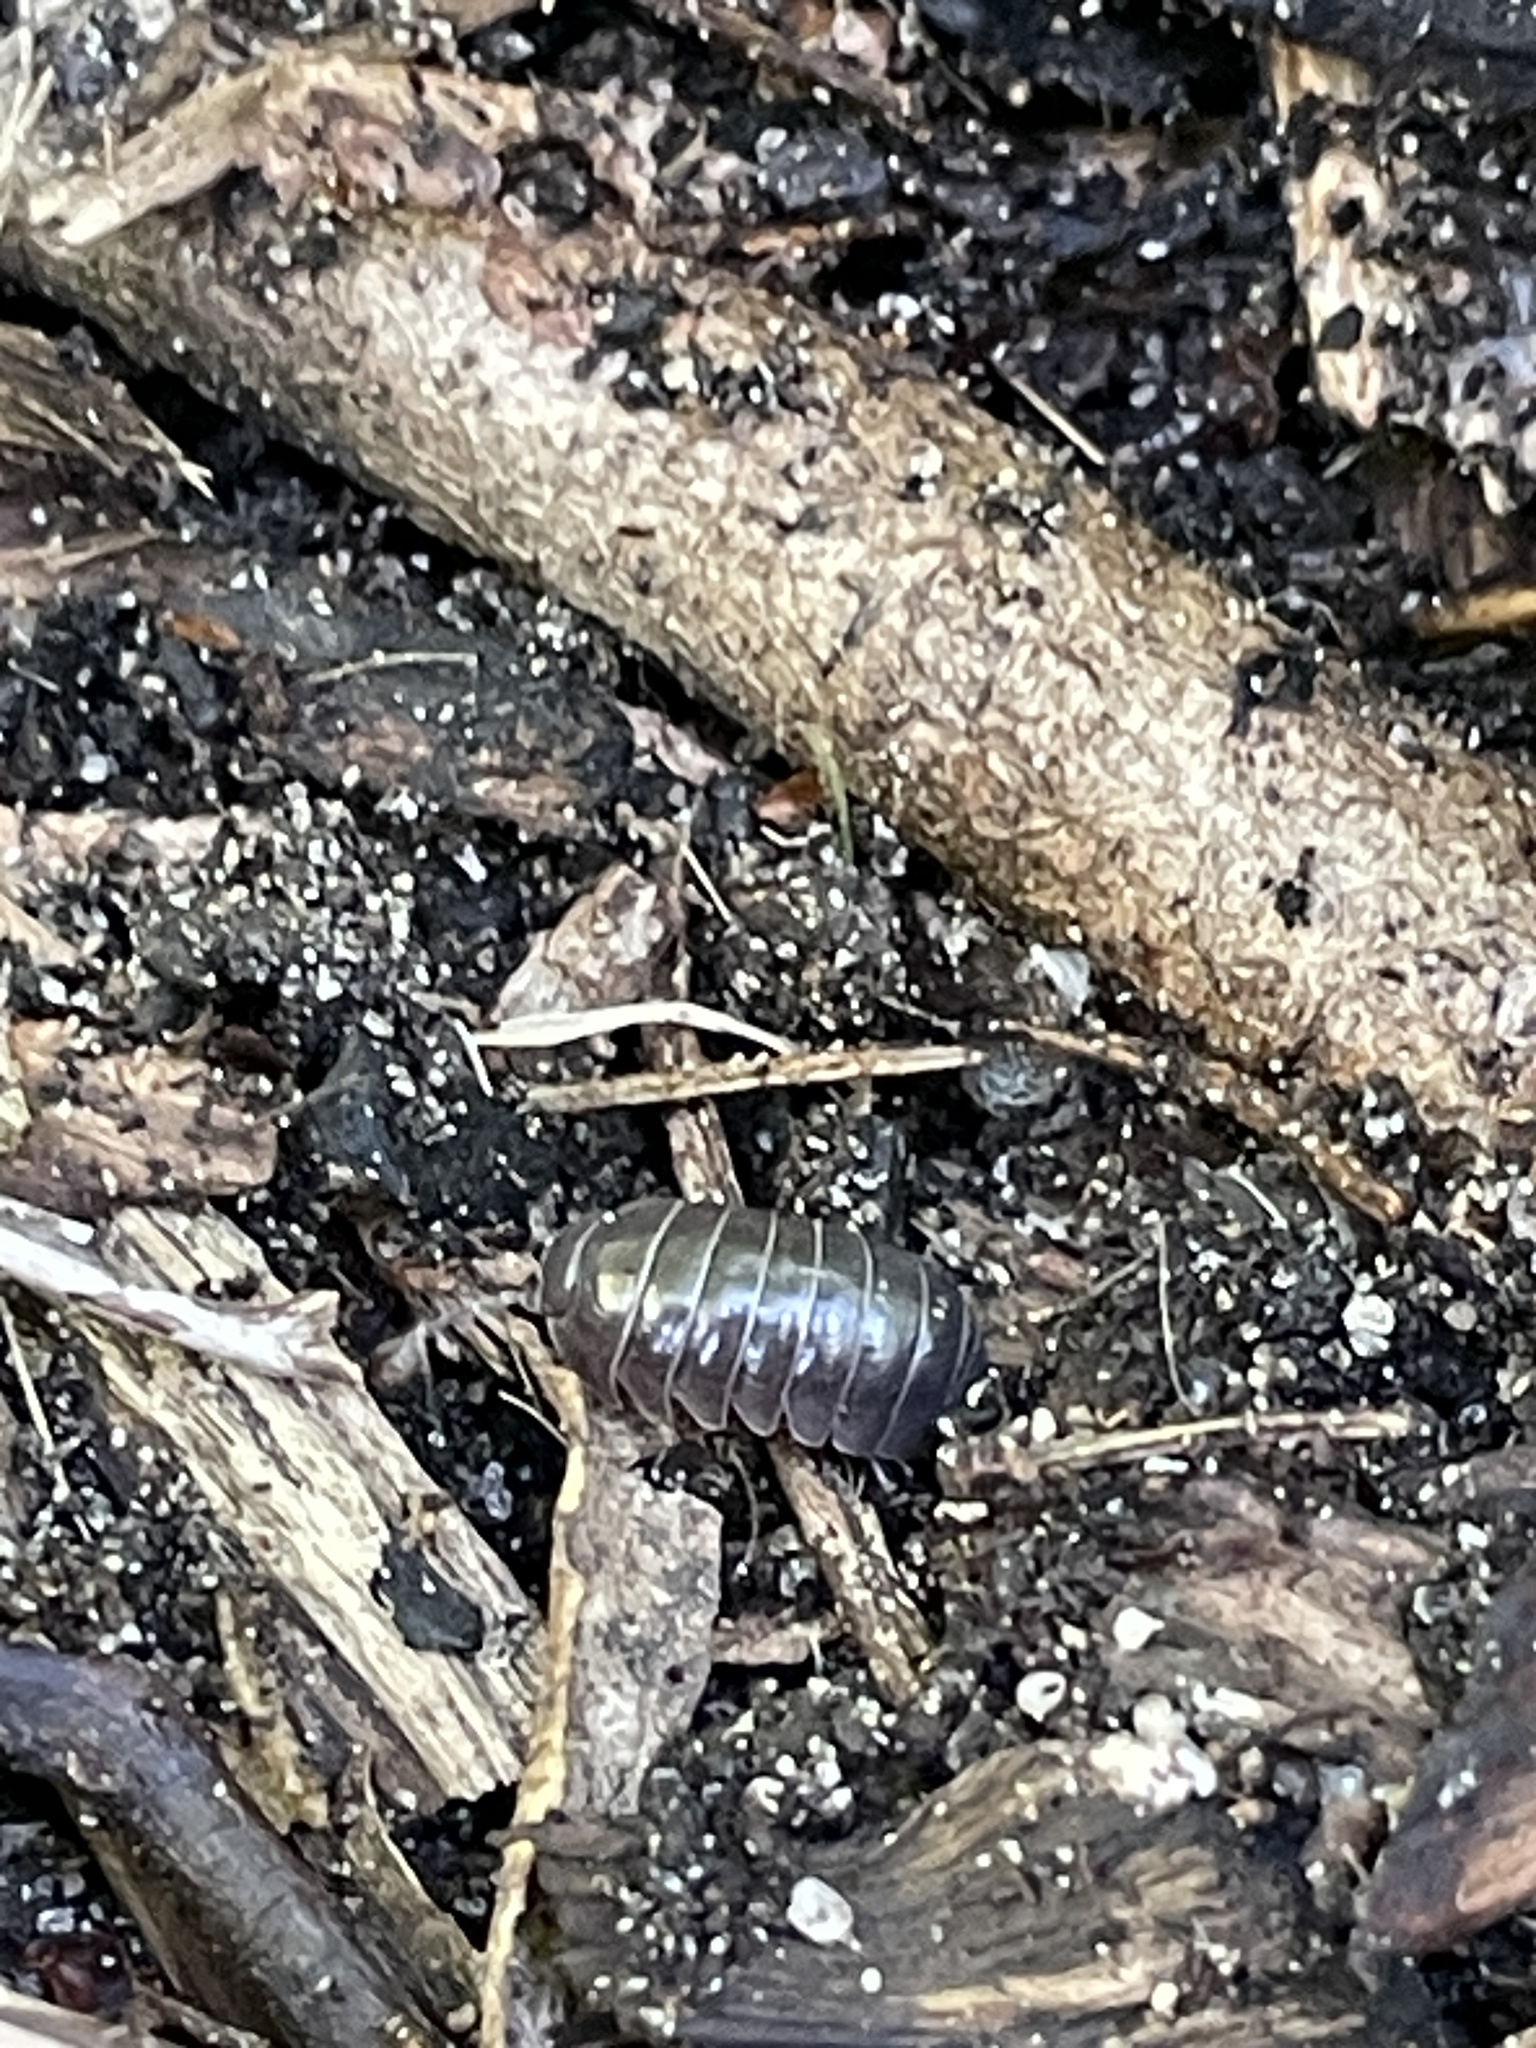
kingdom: Animalia
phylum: Arthropoda
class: Malacostraca
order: Isopoda
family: Armadillidiidae
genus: Armadillidium
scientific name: Armadillidium vulgare
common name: Common pill woodlouse
